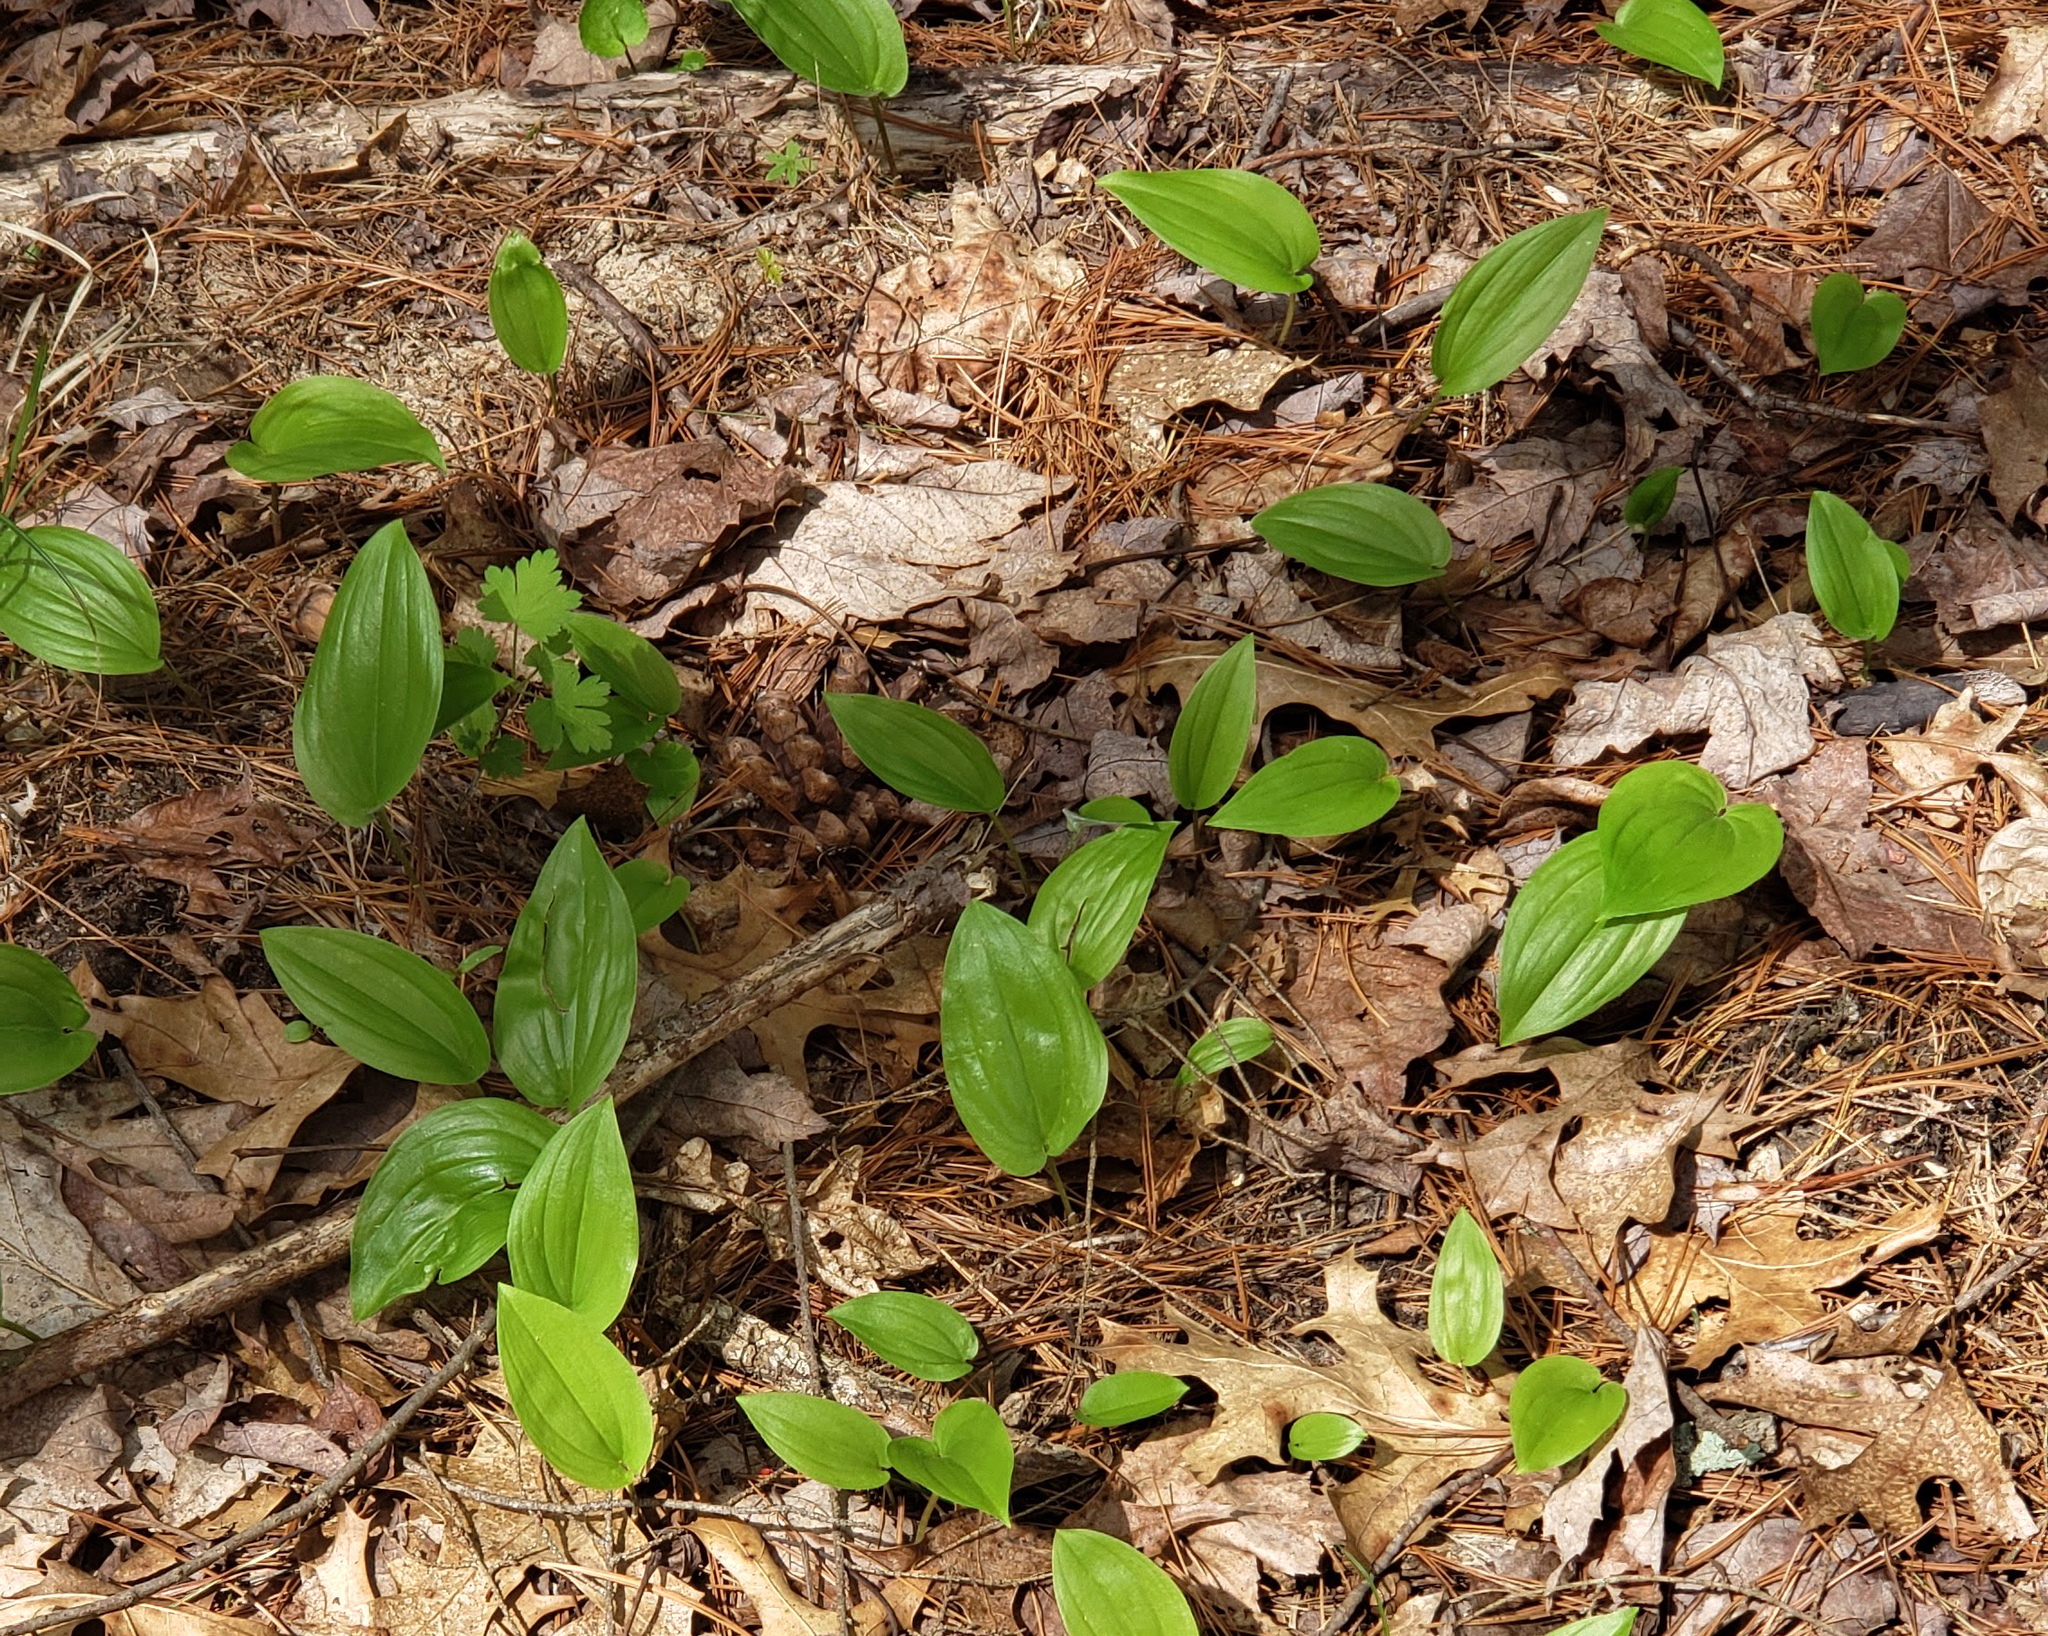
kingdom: Plantae
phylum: Tracheophyta
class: Liliopsida
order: Asparagales
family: Asparagaceae
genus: Maianthemum
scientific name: Maianthemum canadense
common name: False lily-of-the-valley
